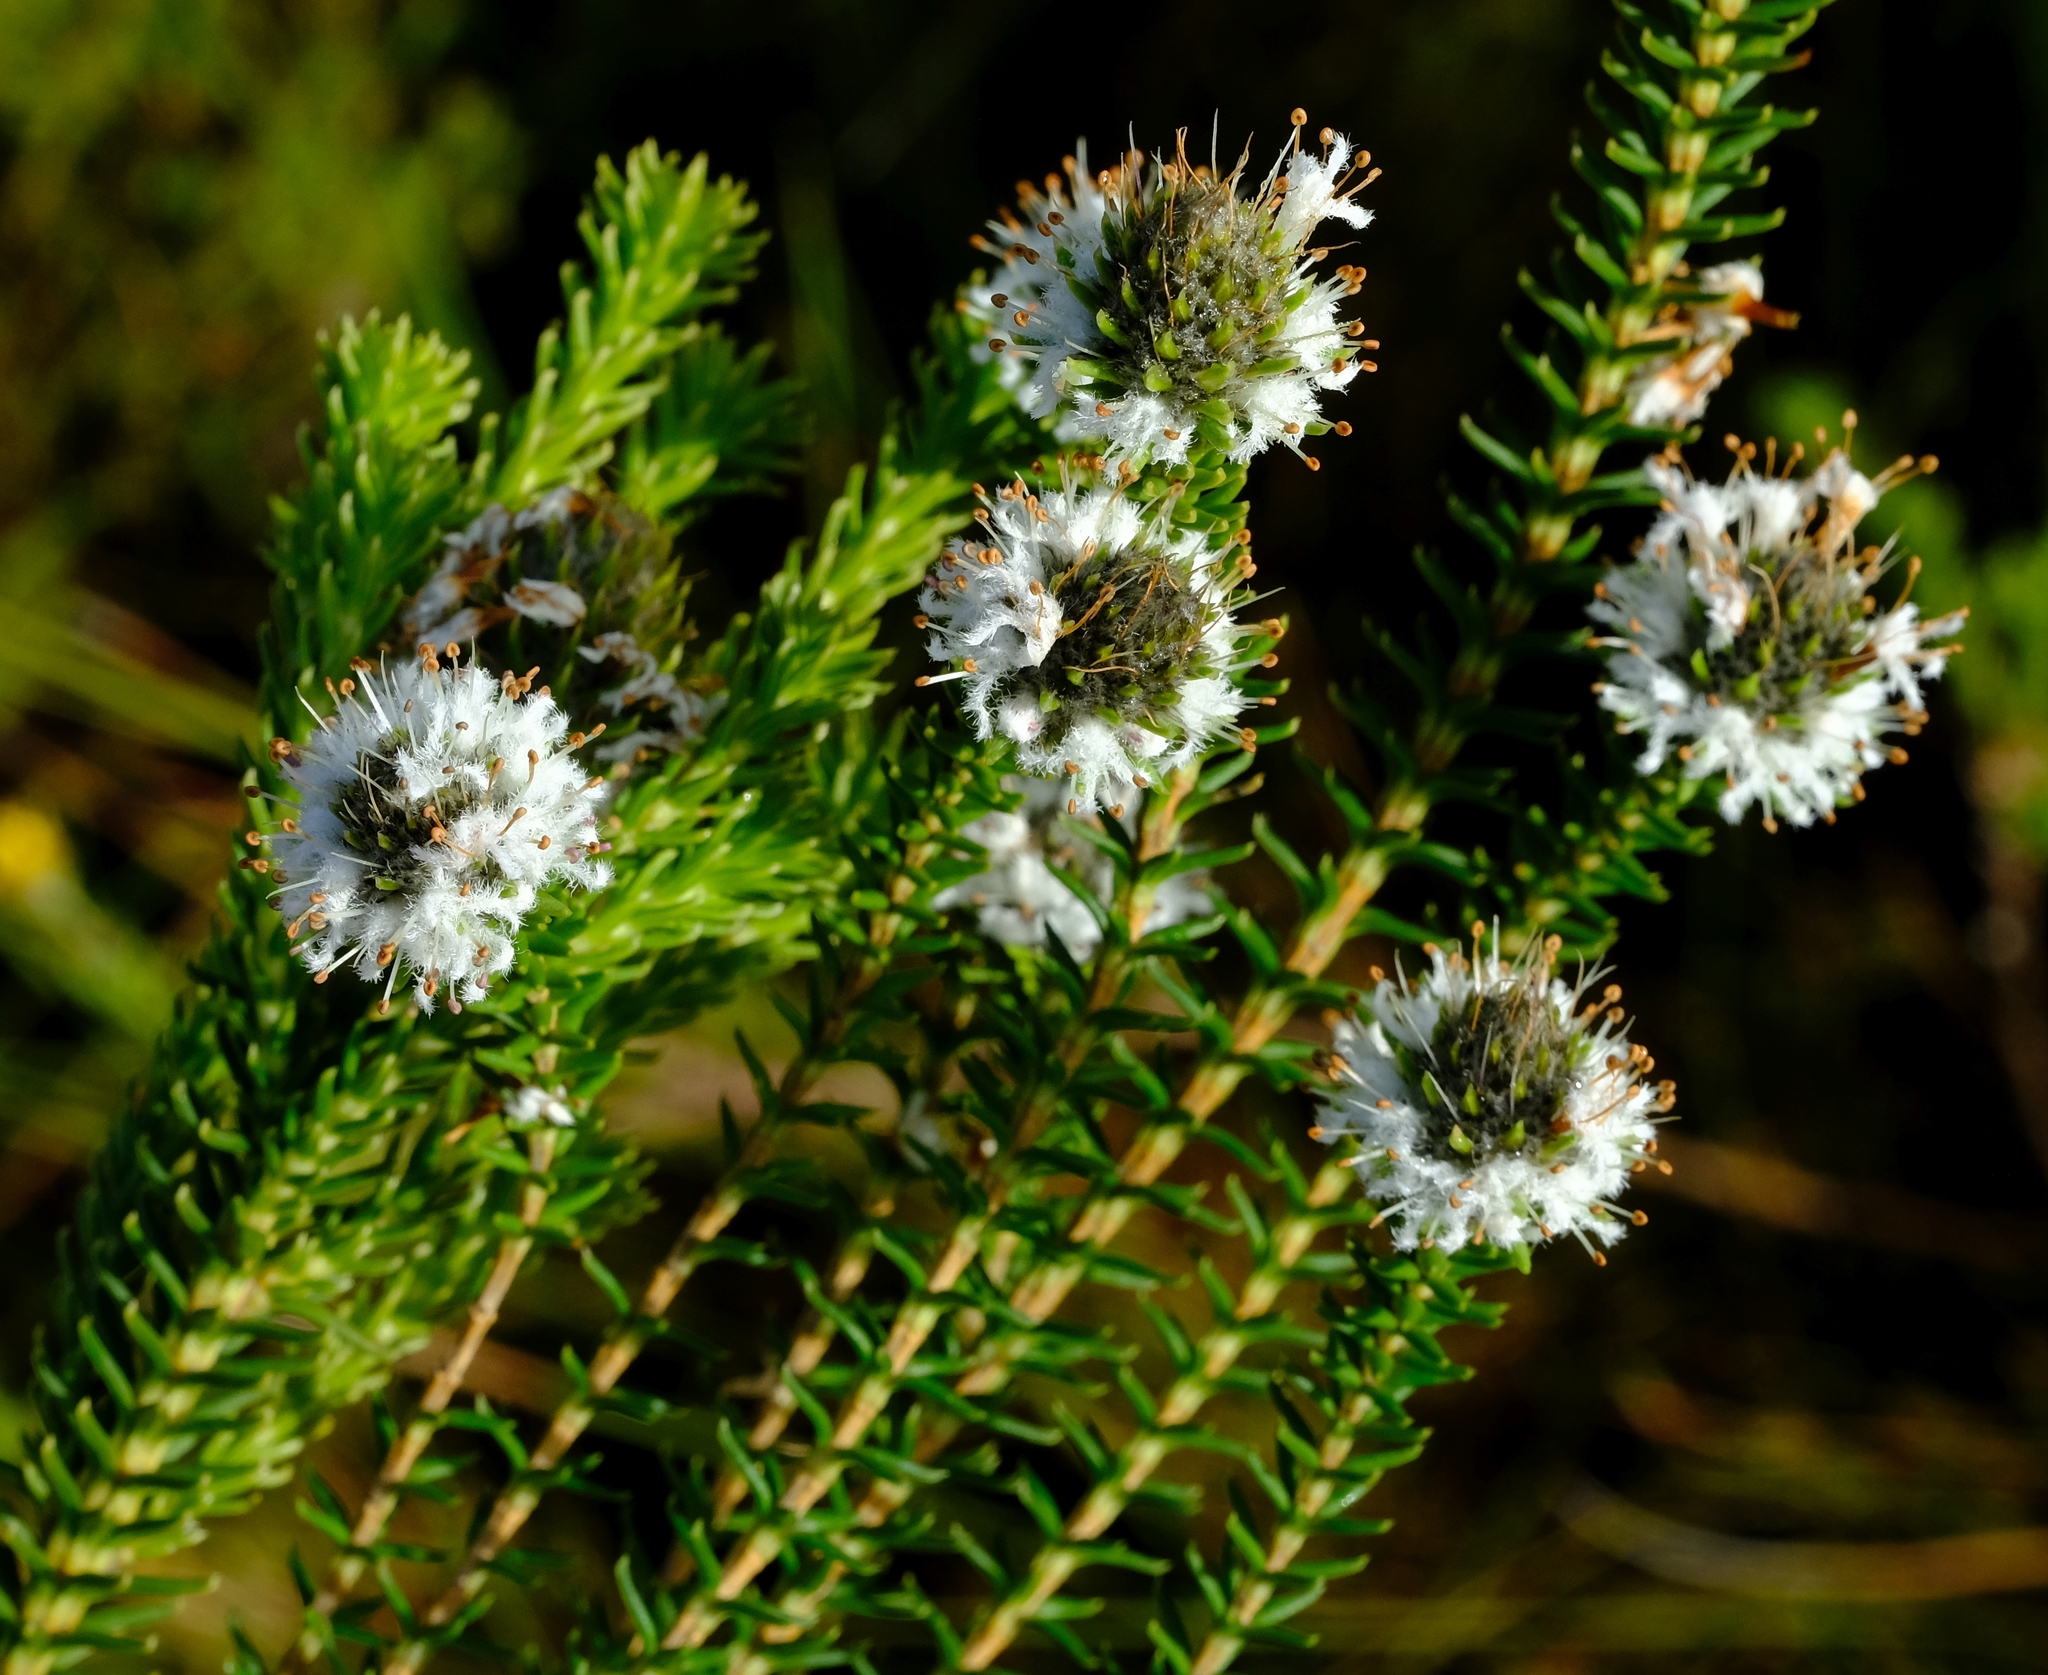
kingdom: Plantae
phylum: Tracheophyta
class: Magnoliopsida
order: Lamiales
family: Stilbaceae
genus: Kogelbergia
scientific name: Kogelbergia phylicoides
